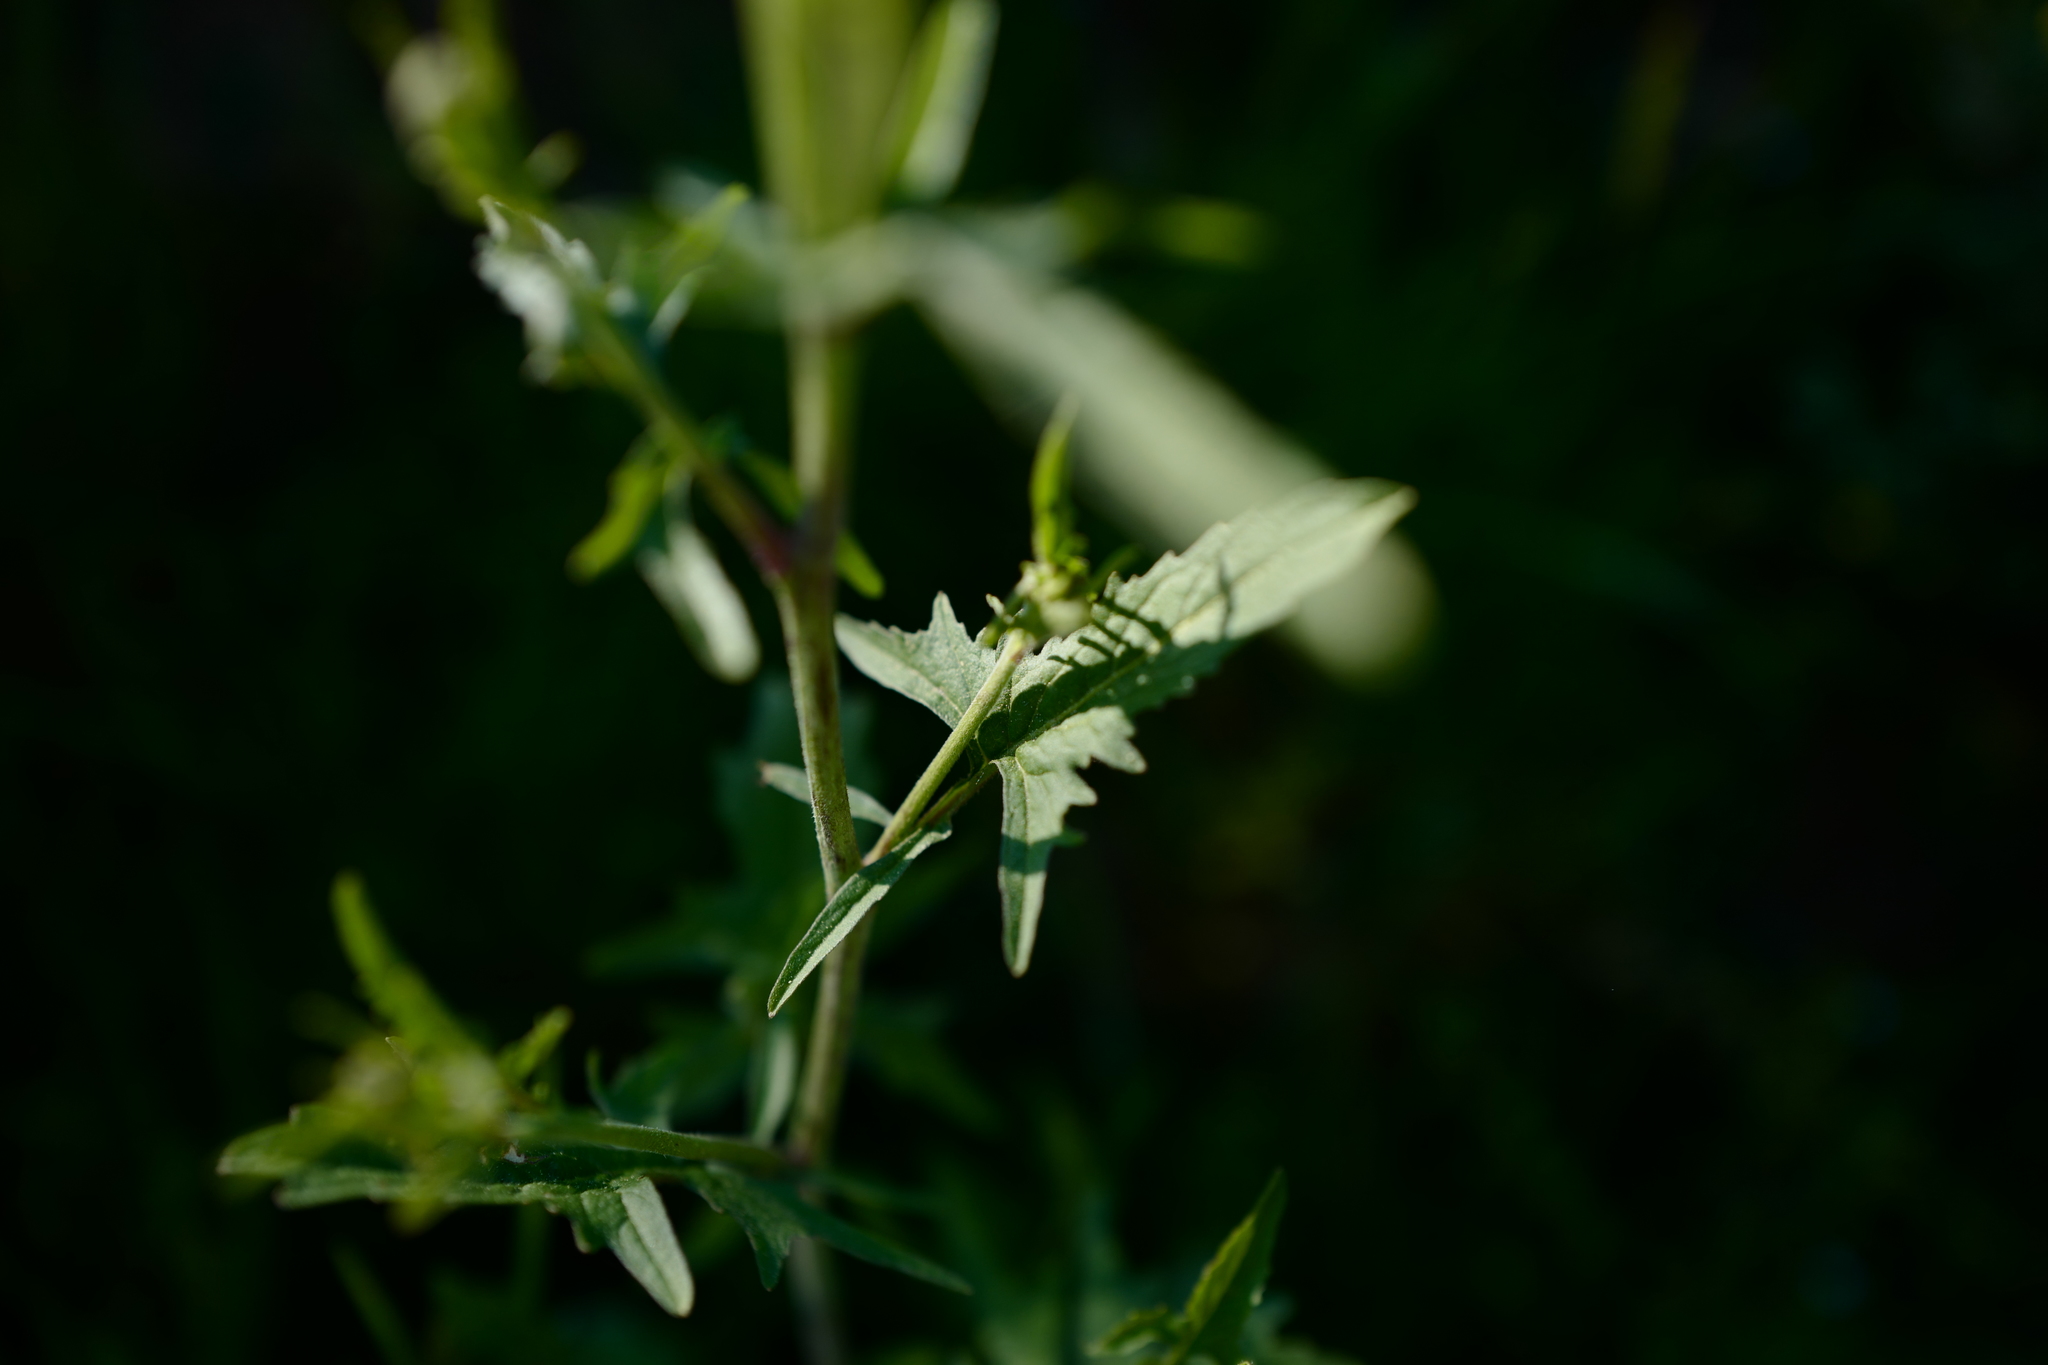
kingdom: Plantae
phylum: Tracheophyta
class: Magnoliopsida
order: Brassicales
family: Brassicaceae
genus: Sisymbrium
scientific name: Sisymbrium officinale
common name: Hedge mustard
